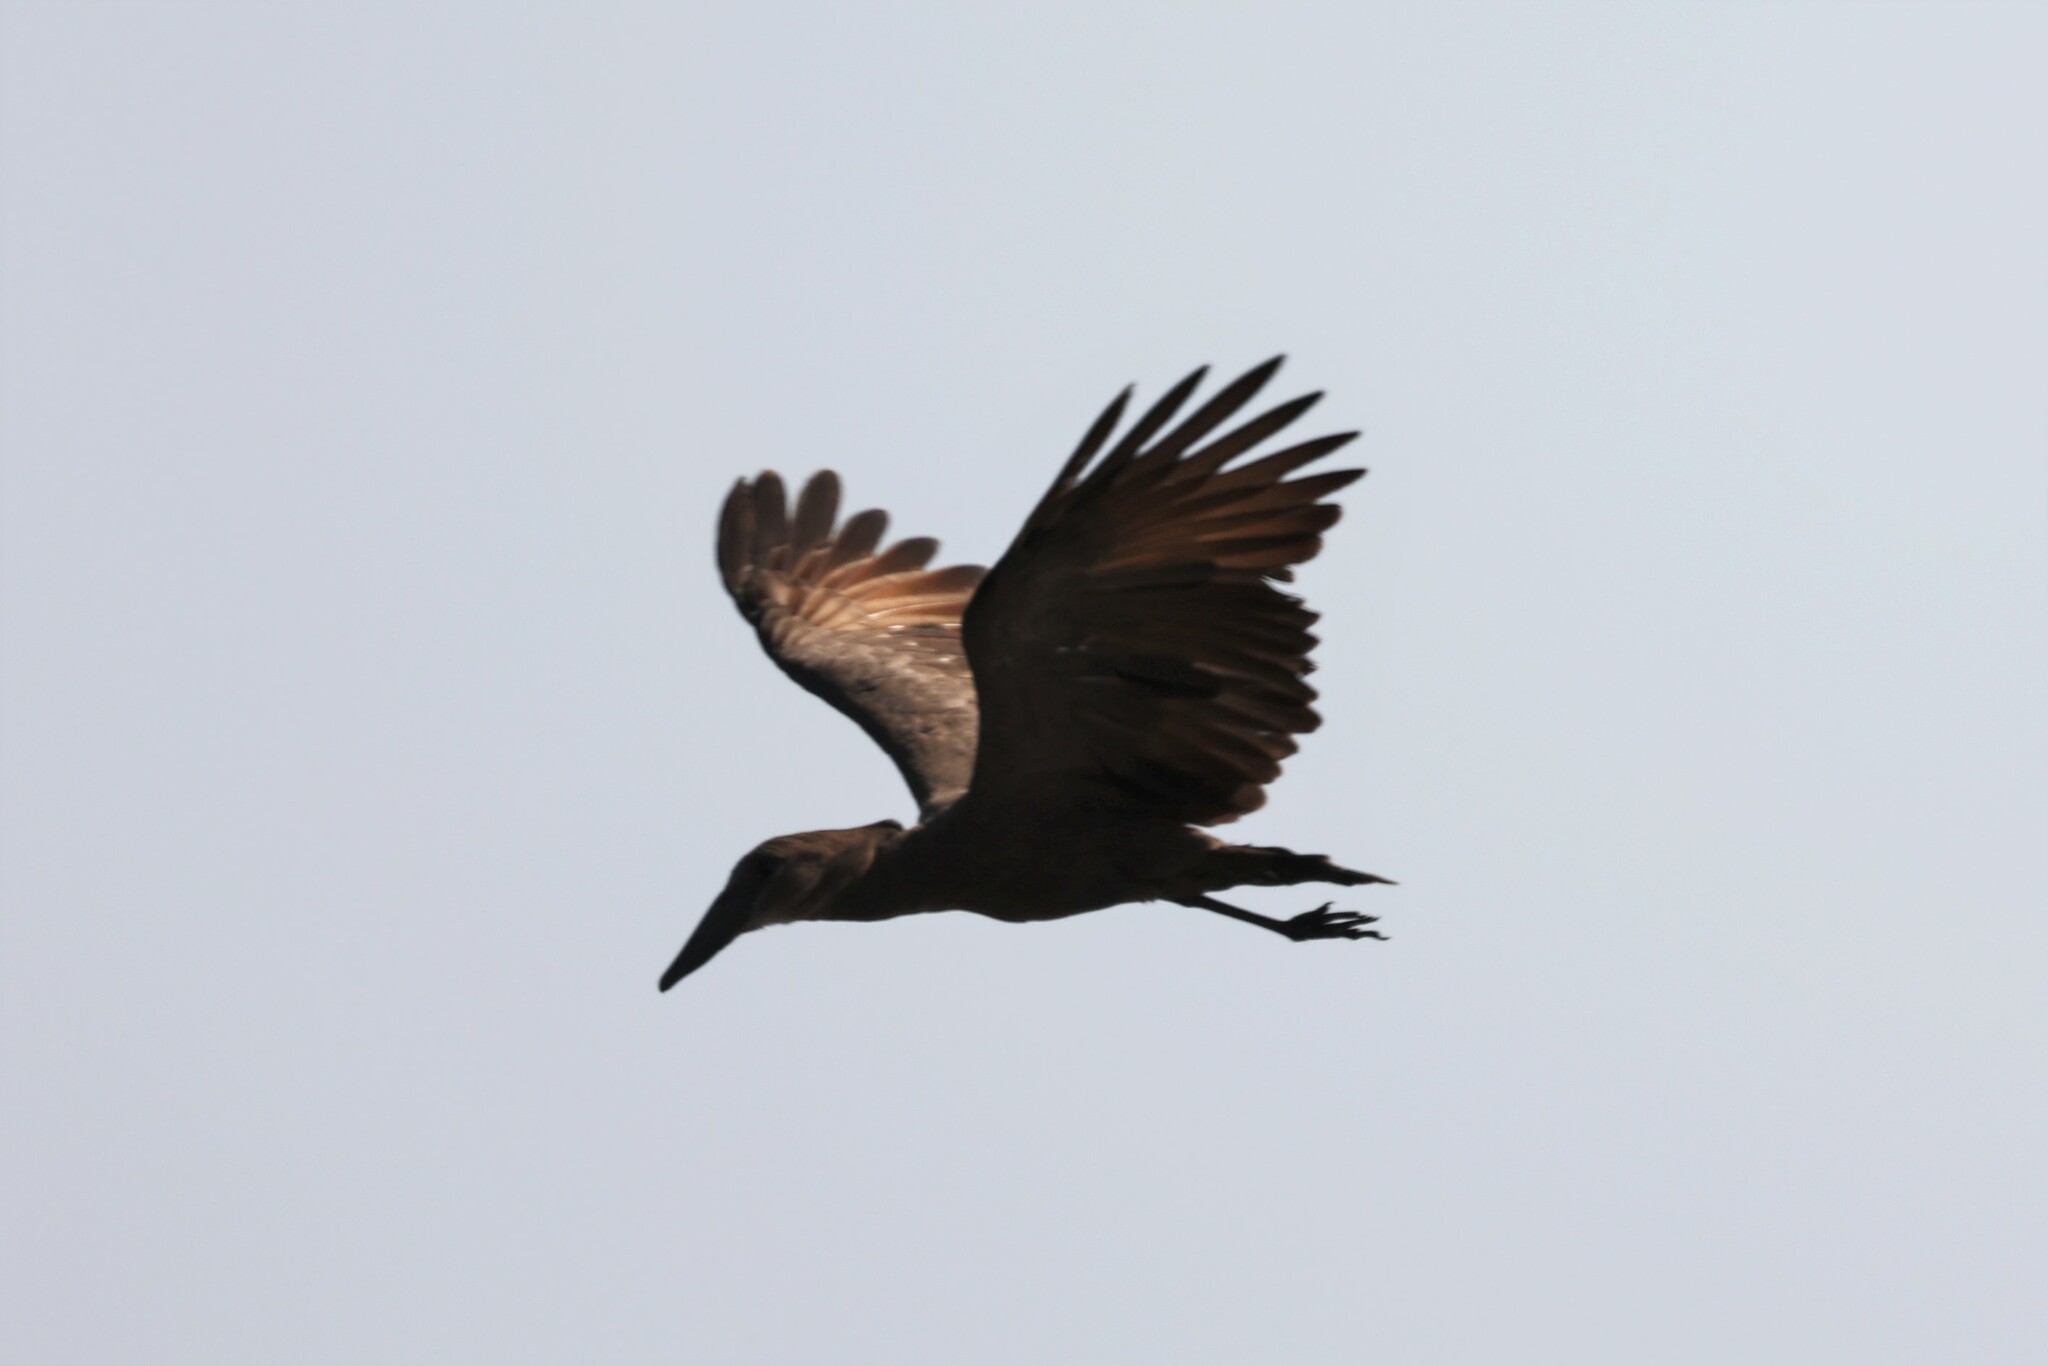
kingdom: Animalia
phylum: Chordata
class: Aves
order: Pelecaniformes
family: Scopidae
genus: Scopus
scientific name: Scopus umbretta
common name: Hamerkop
